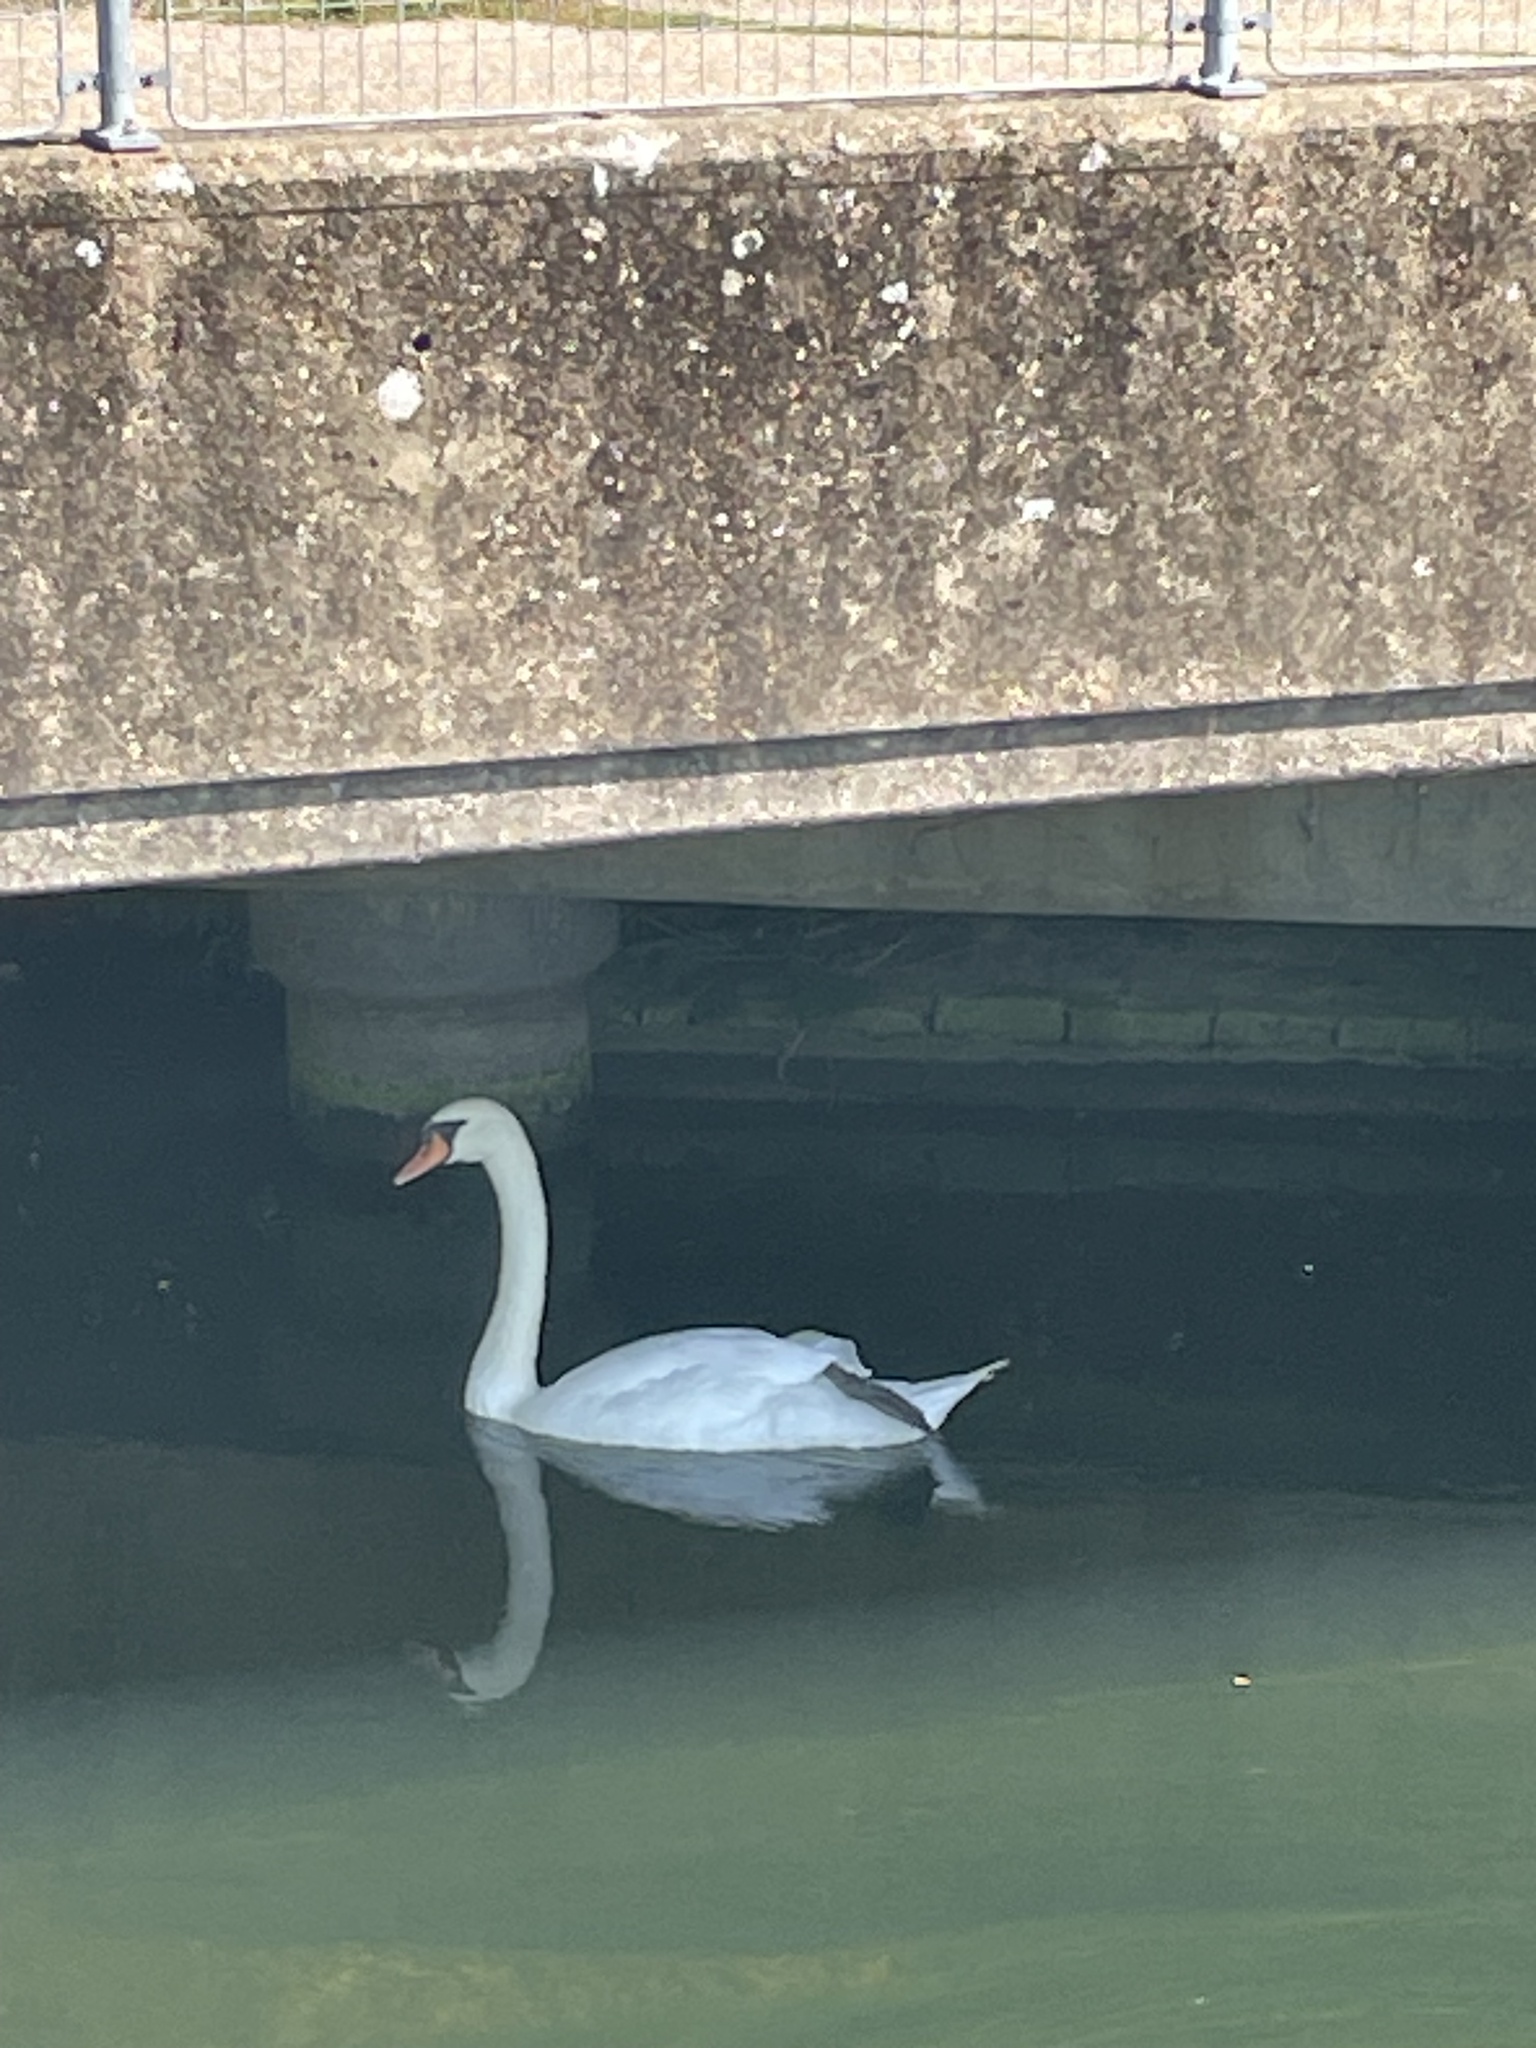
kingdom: Animalia
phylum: Chordata
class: Aves
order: Anseriformes
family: Anatidae
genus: Cygnus
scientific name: Cygnus olor
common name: Mute swan
